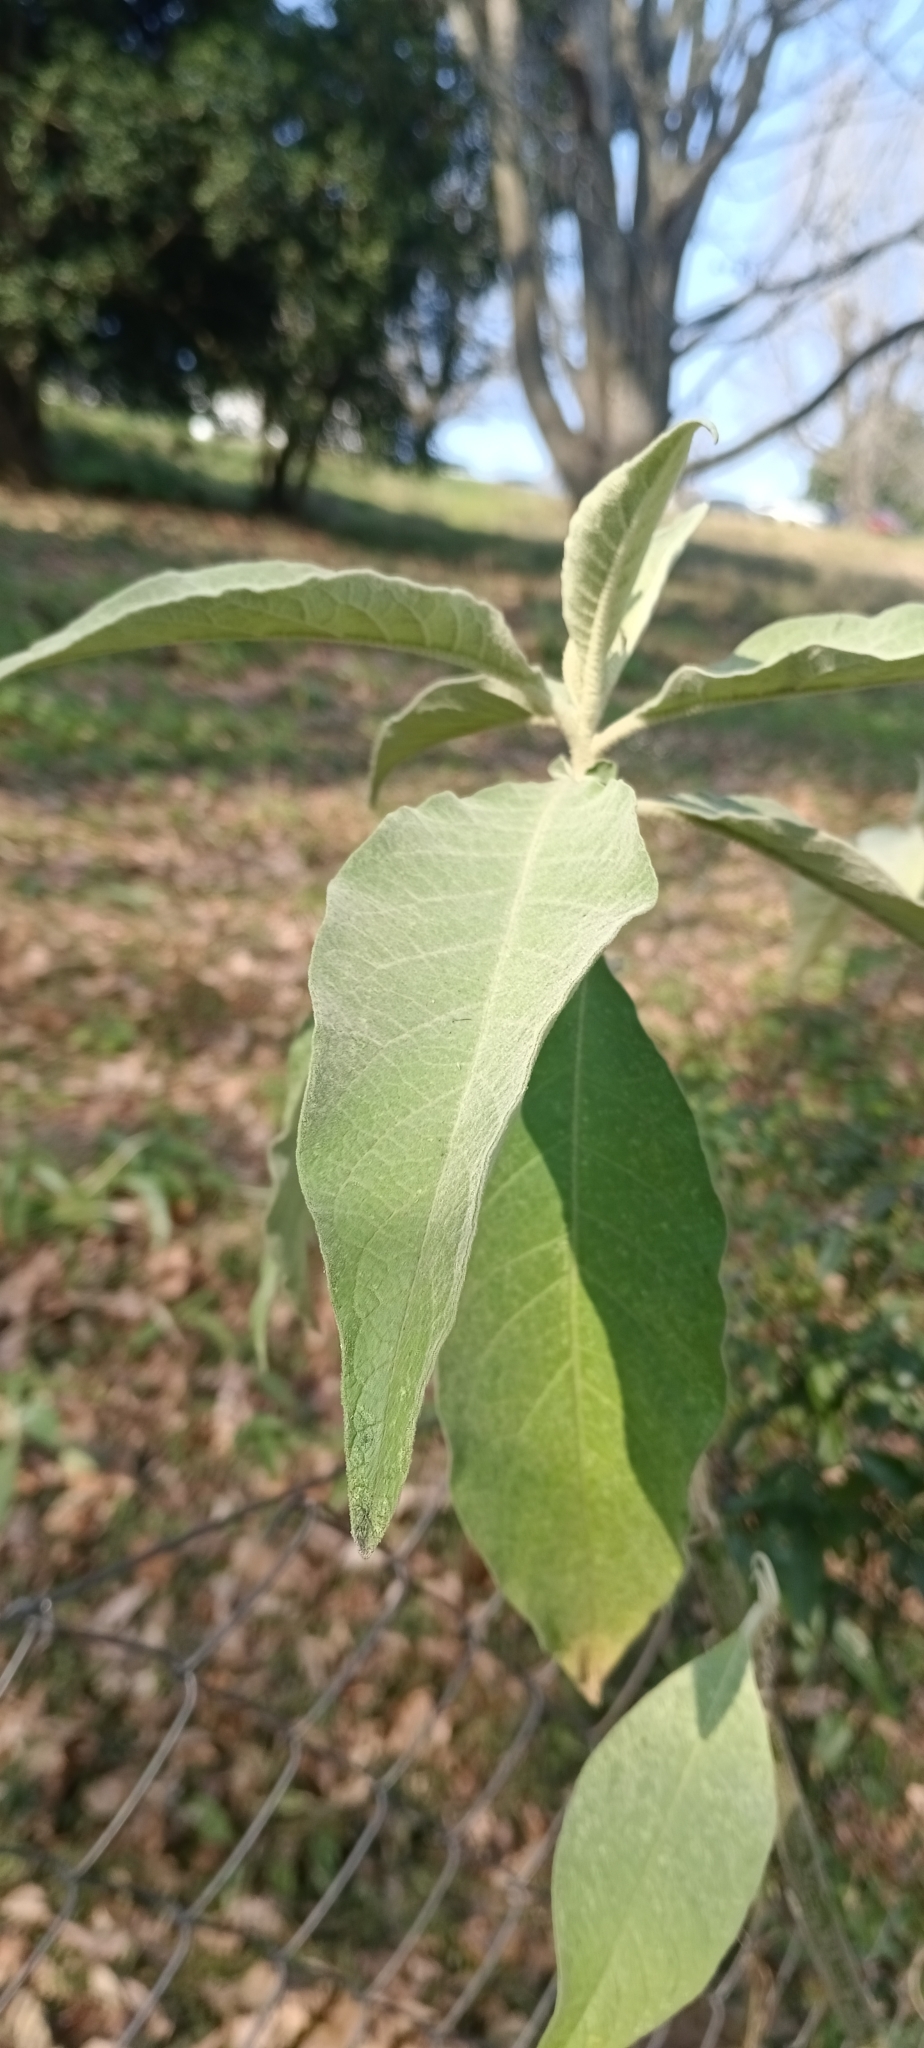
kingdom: Plantae
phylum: Tracheophyta
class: Magnoliopsida
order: Solanales
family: Solanaceae
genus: Solanum
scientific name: Solanum mauritianum
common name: Earleaf nightshade
